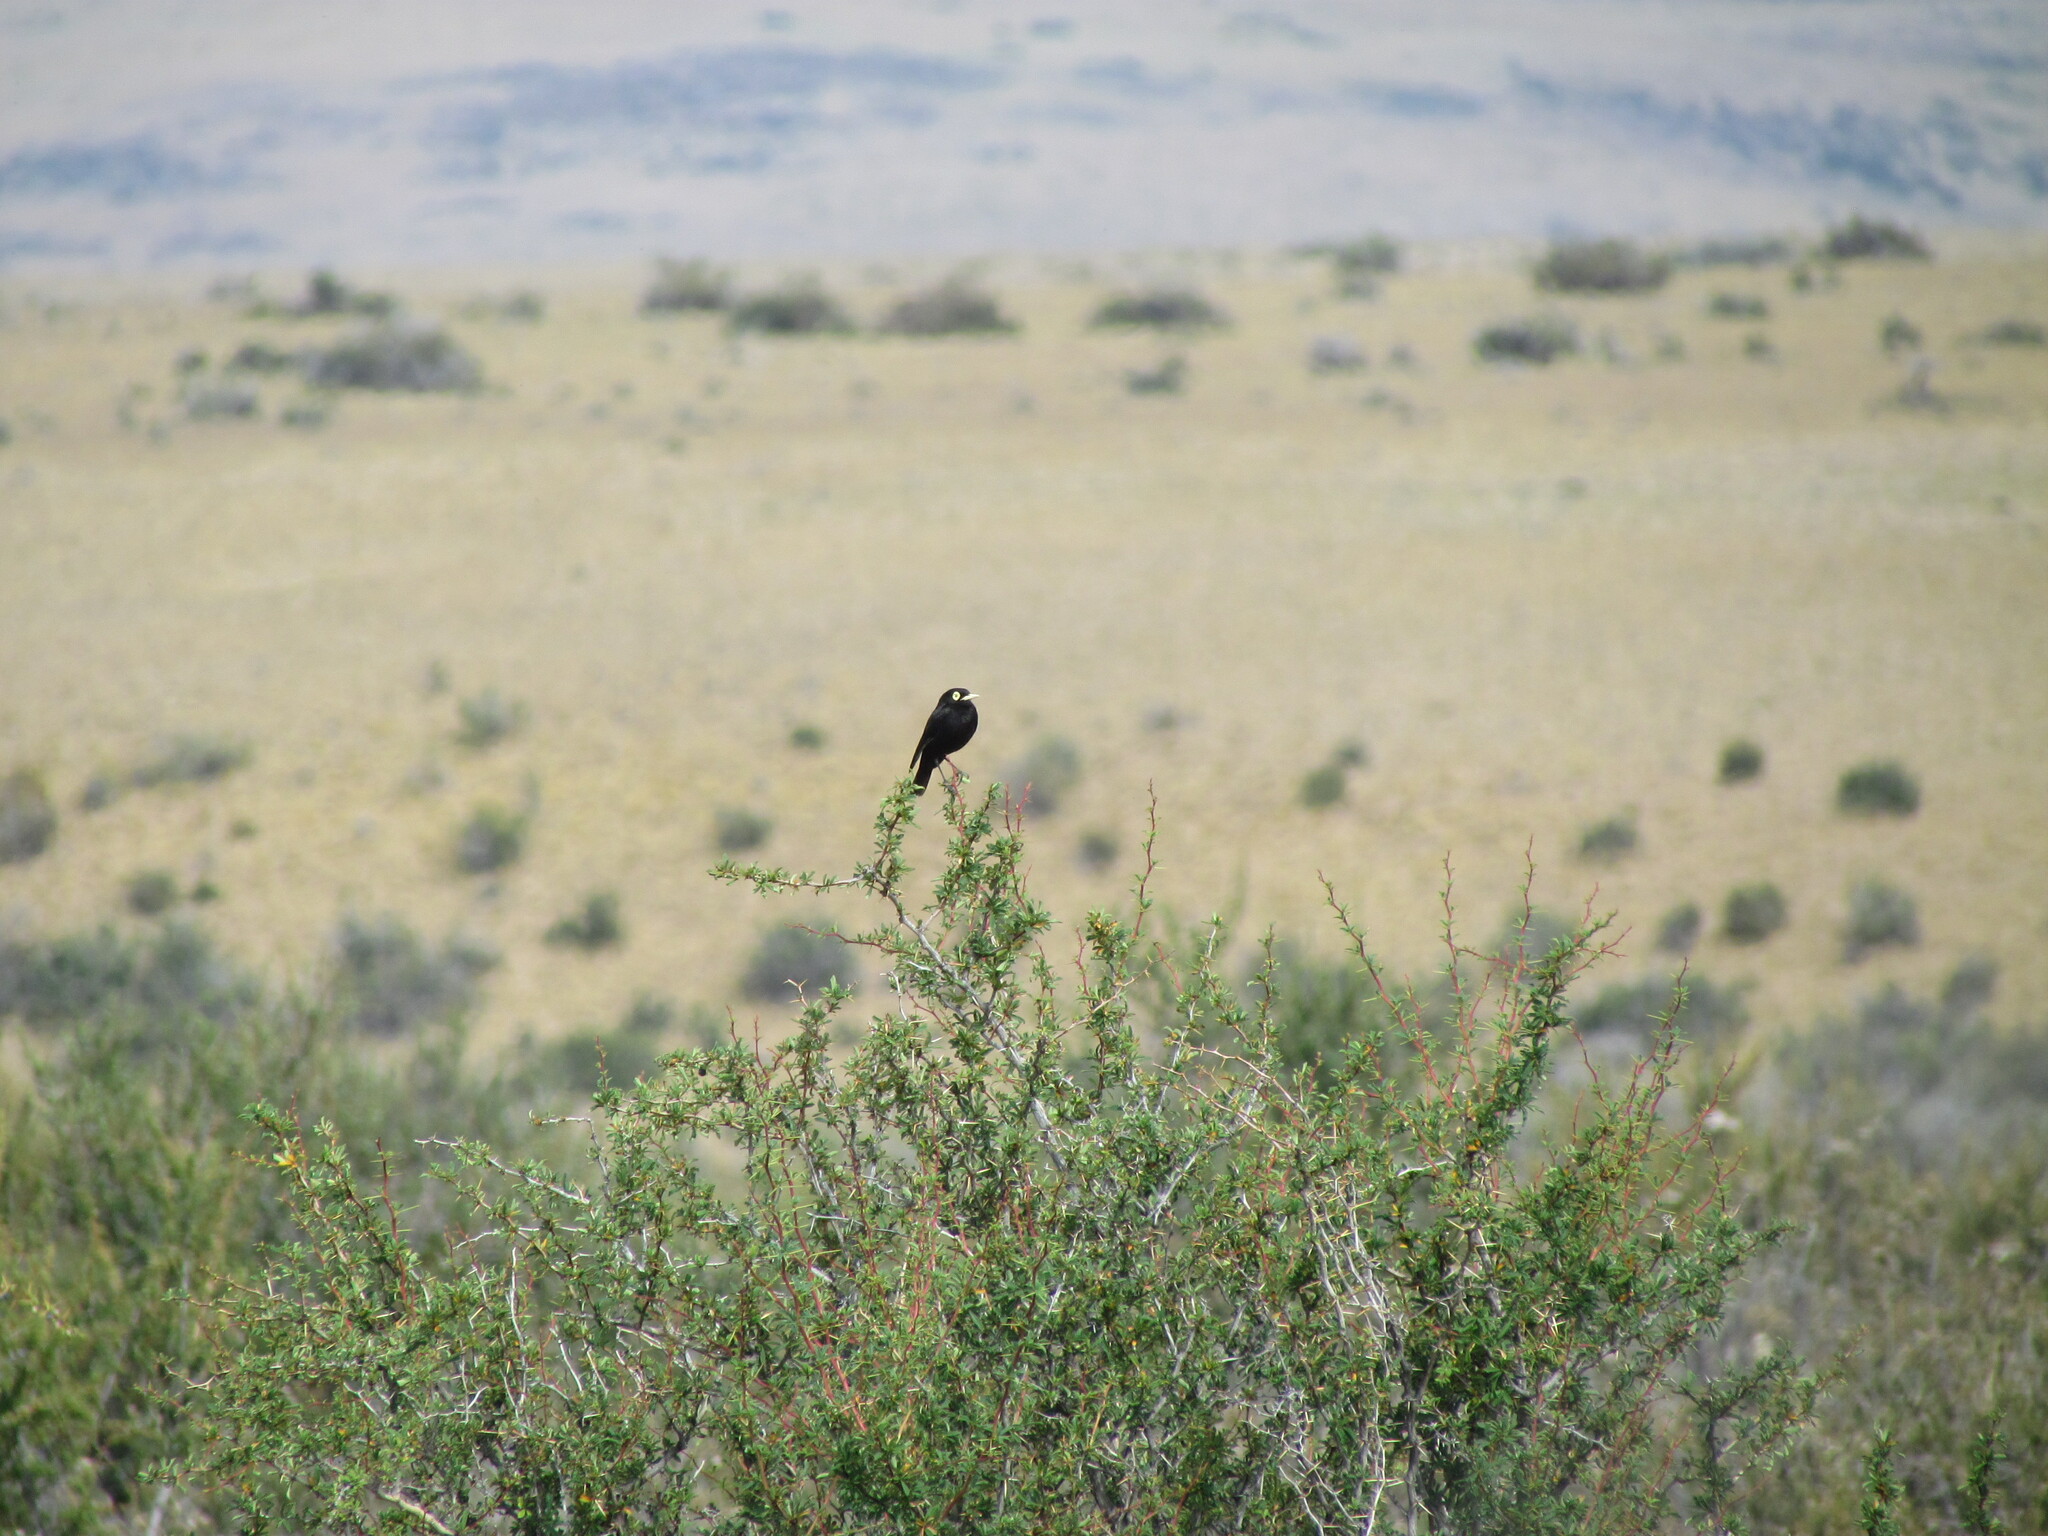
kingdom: Animalia
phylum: Chordata
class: Aves
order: Passeriformes
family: Tyrannidae
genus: Hymenops
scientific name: Hymenops perspicillatus
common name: Spectacled tyrant
